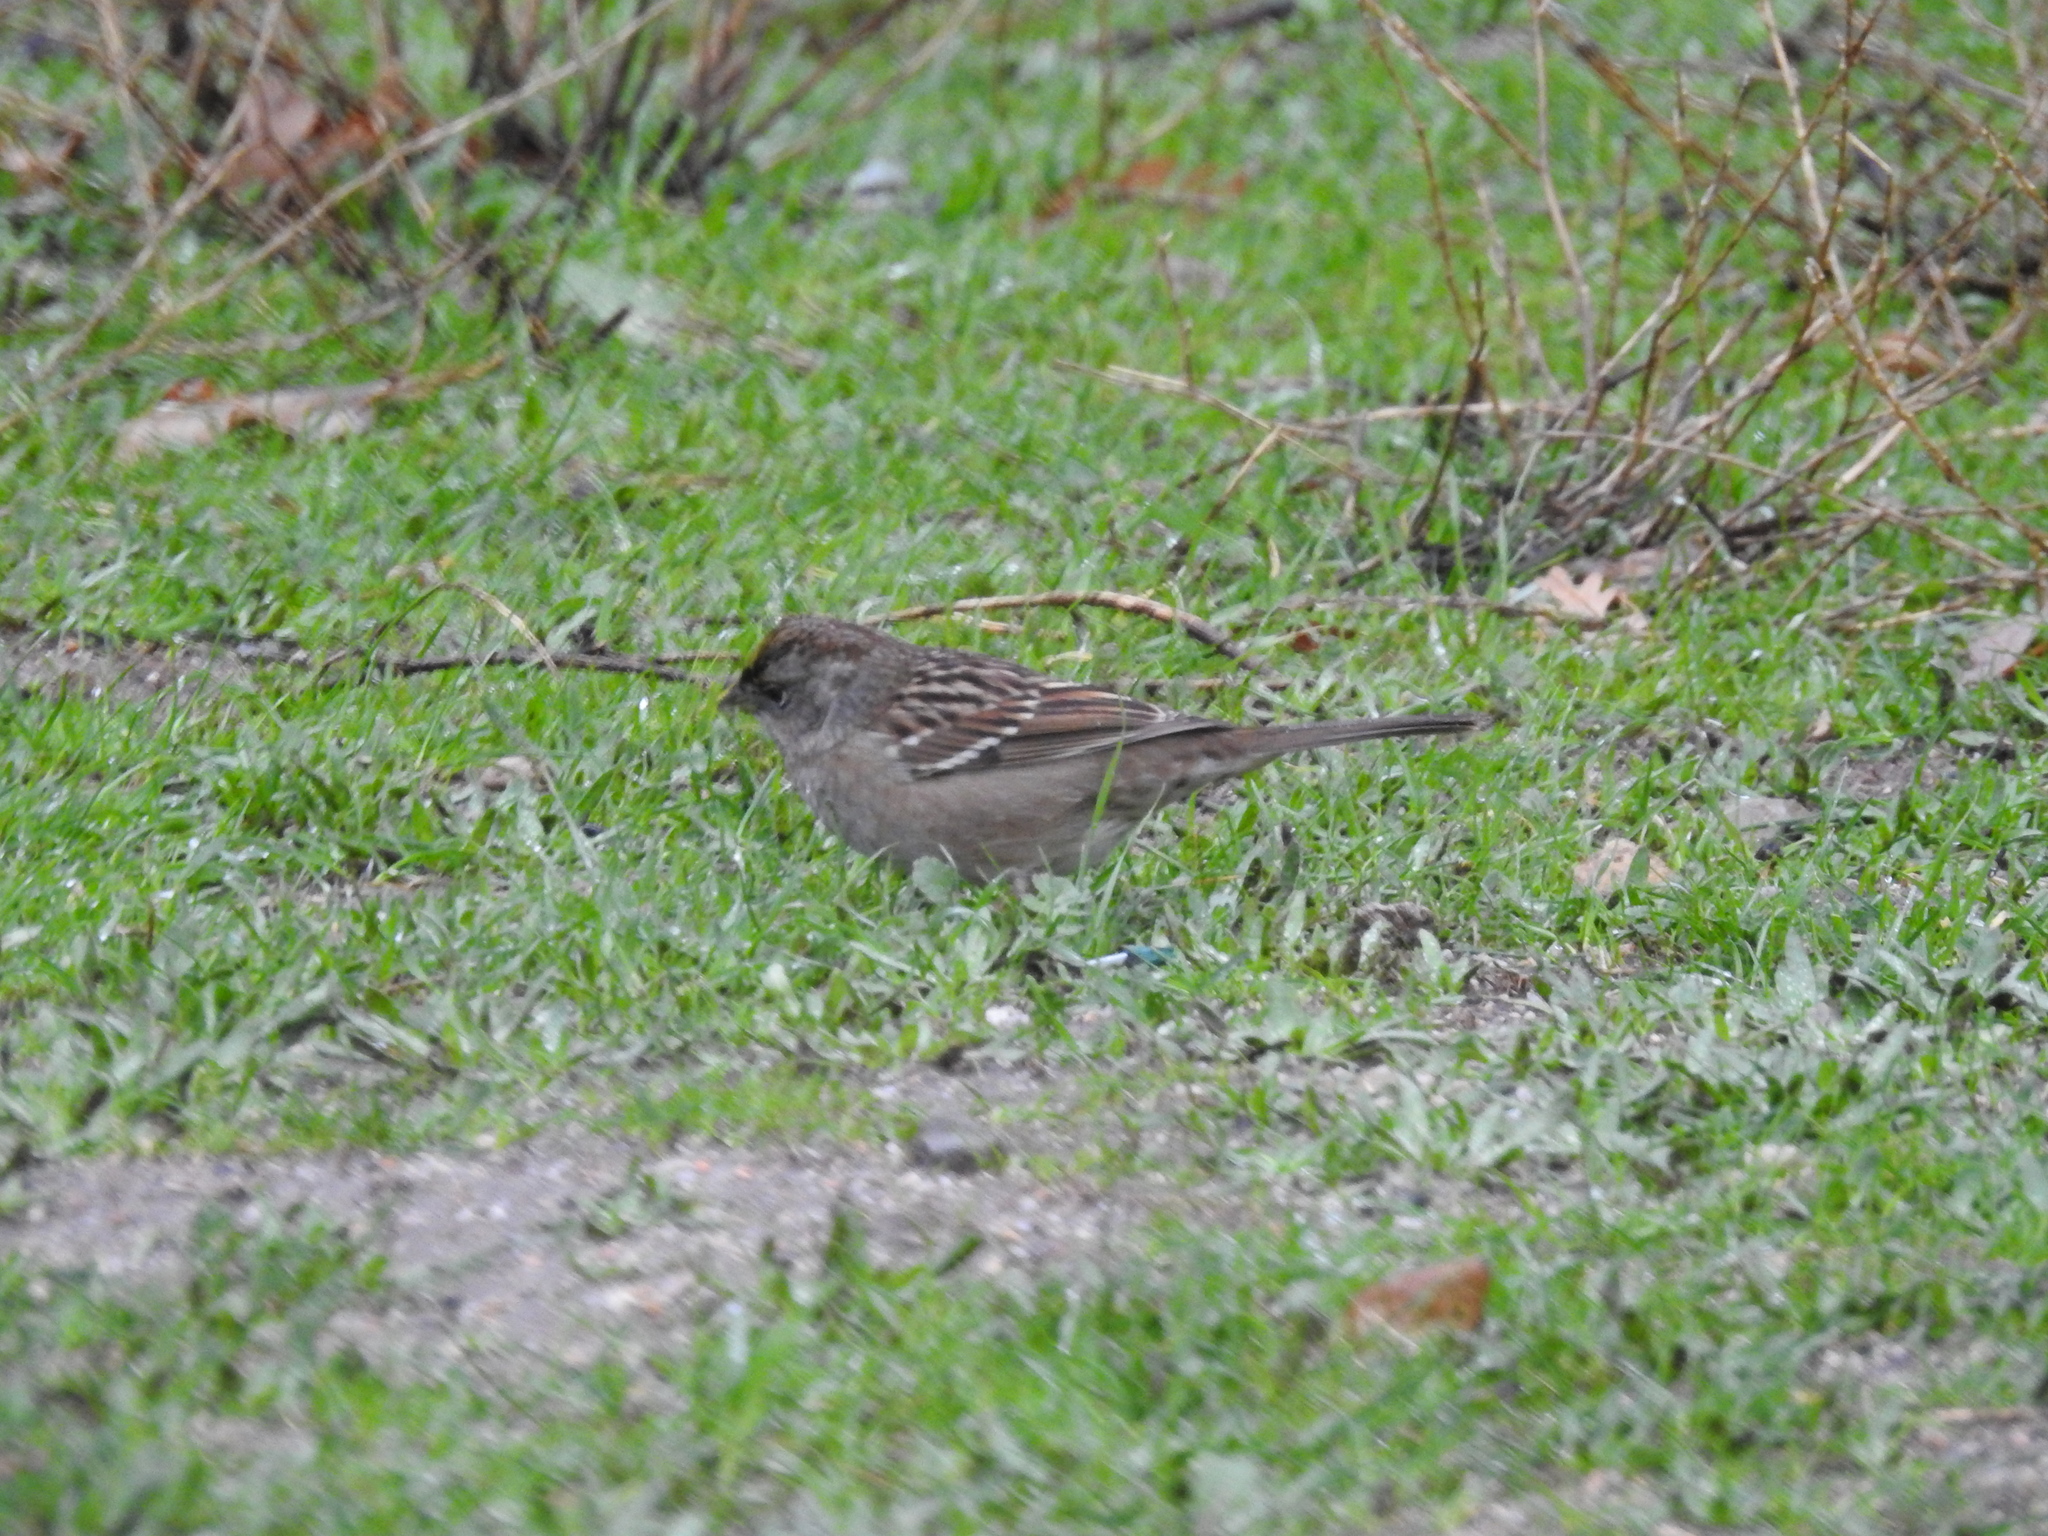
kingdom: Animalia
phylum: Chordata
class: Aves
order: Passeriformes
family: Passerellidae
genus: Zonotrichia
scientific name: Zonotrichia atricapilla
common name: Golden-crowned sparrow
